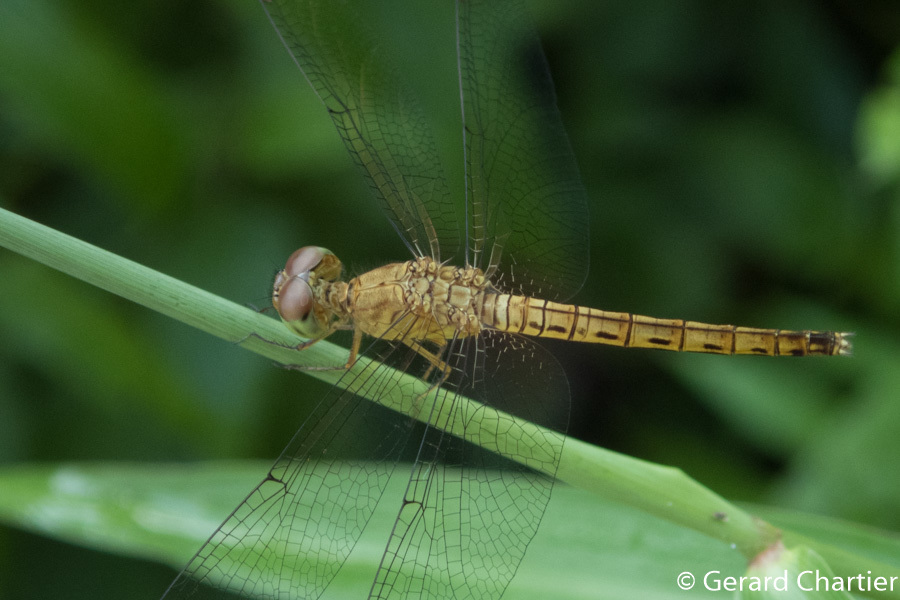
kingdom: Animalia
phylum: Arthropoda
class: Insecta
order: Odonata
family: Libellulidae
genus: Neurothemis
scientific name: Neurothemis fluctuans
